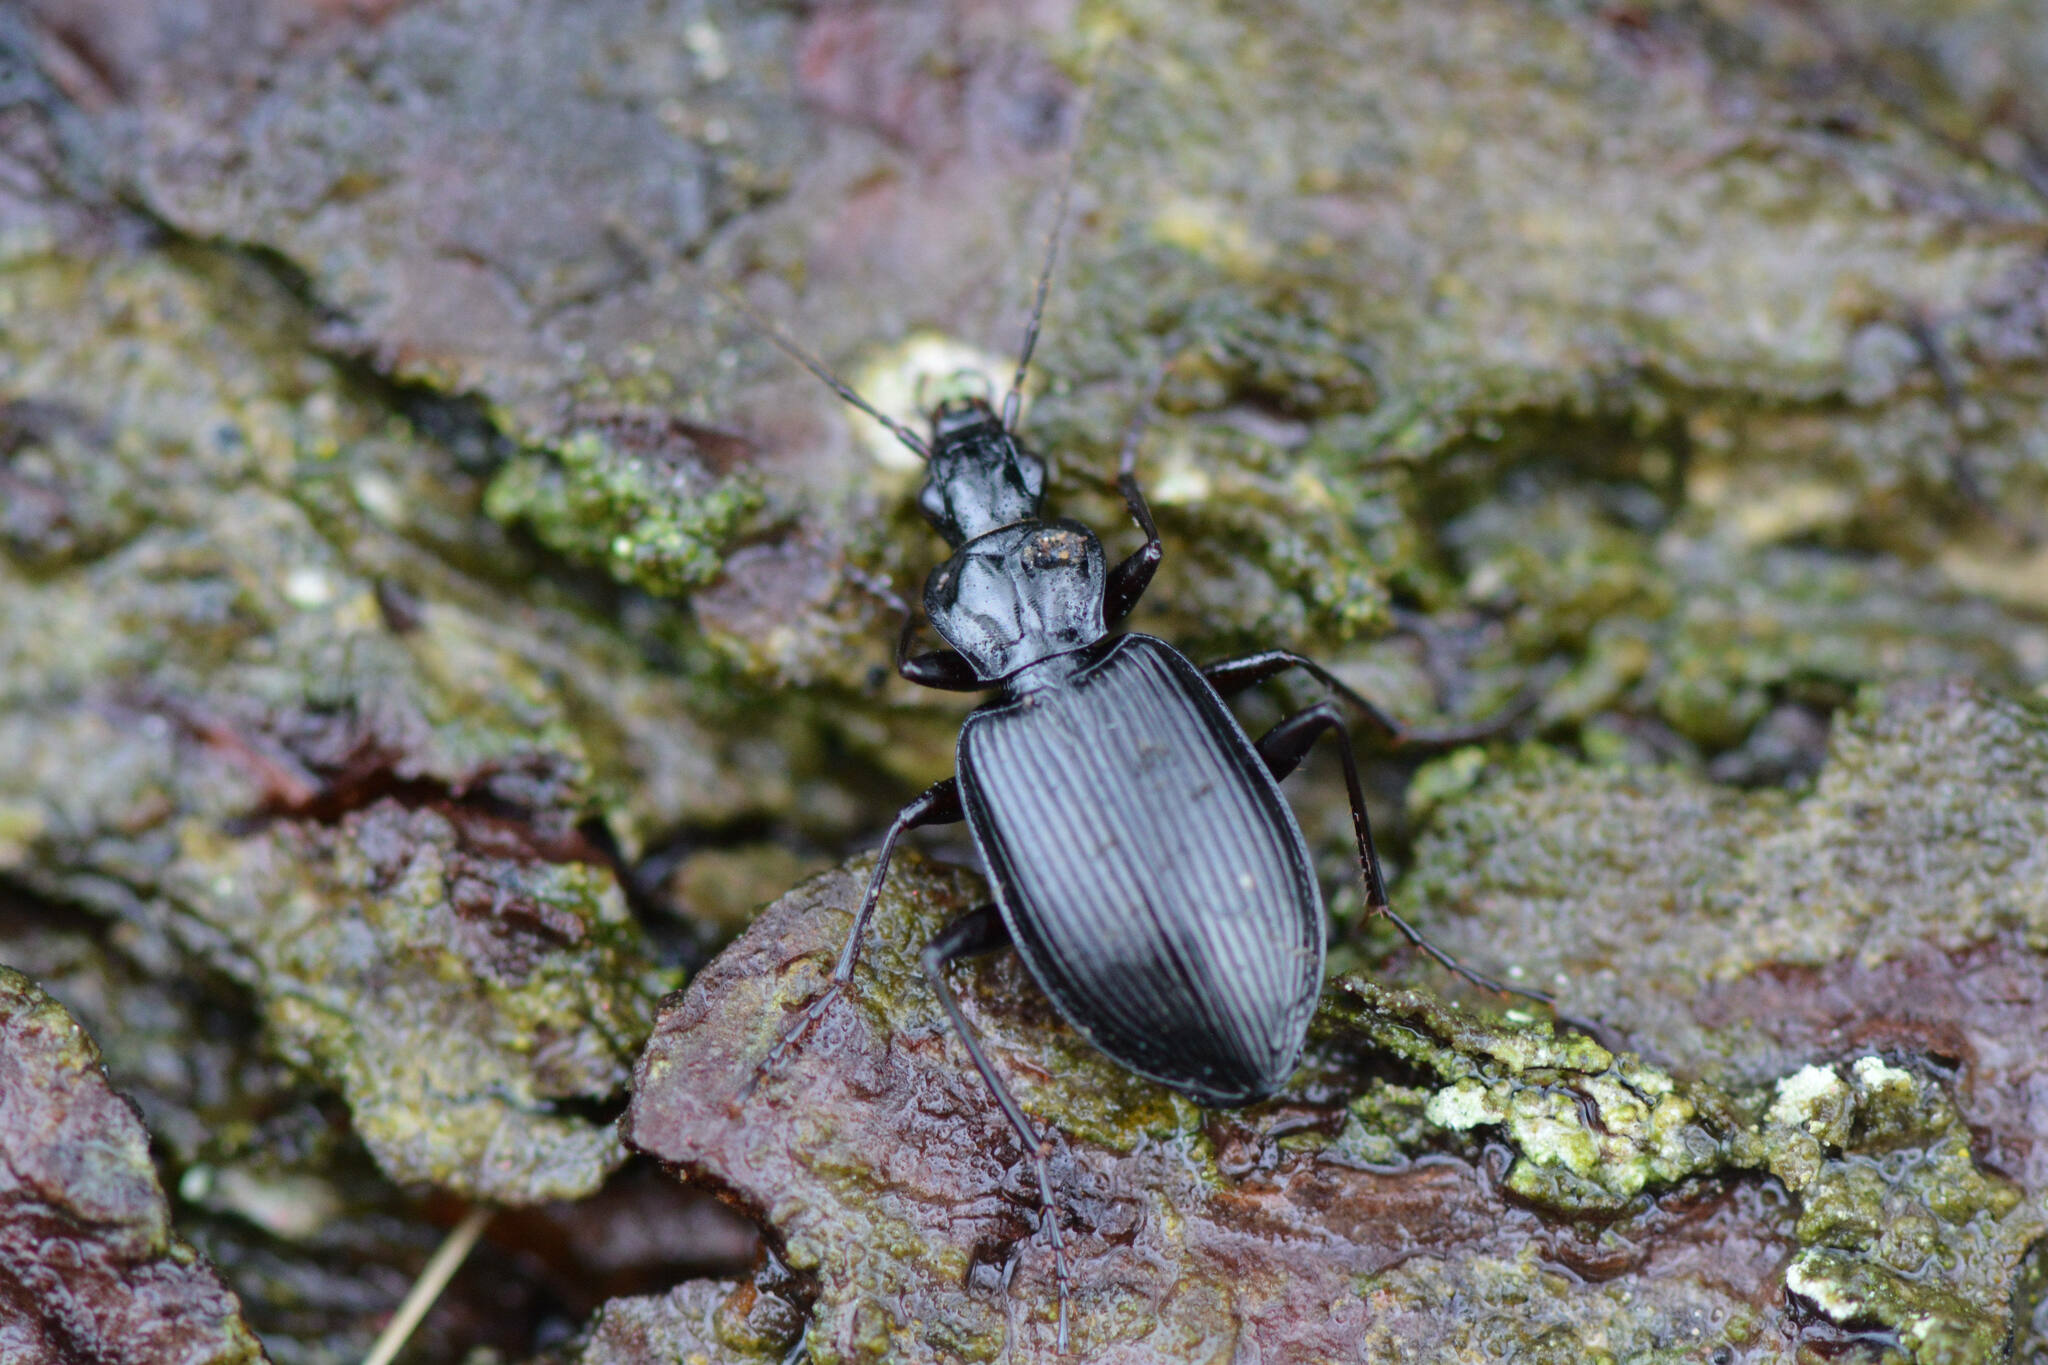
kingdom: Animalia
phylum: Arthropoda
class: Insecta
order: Coleoptera
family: Carabidae
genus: Platynus
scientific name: Platynus assimilis
